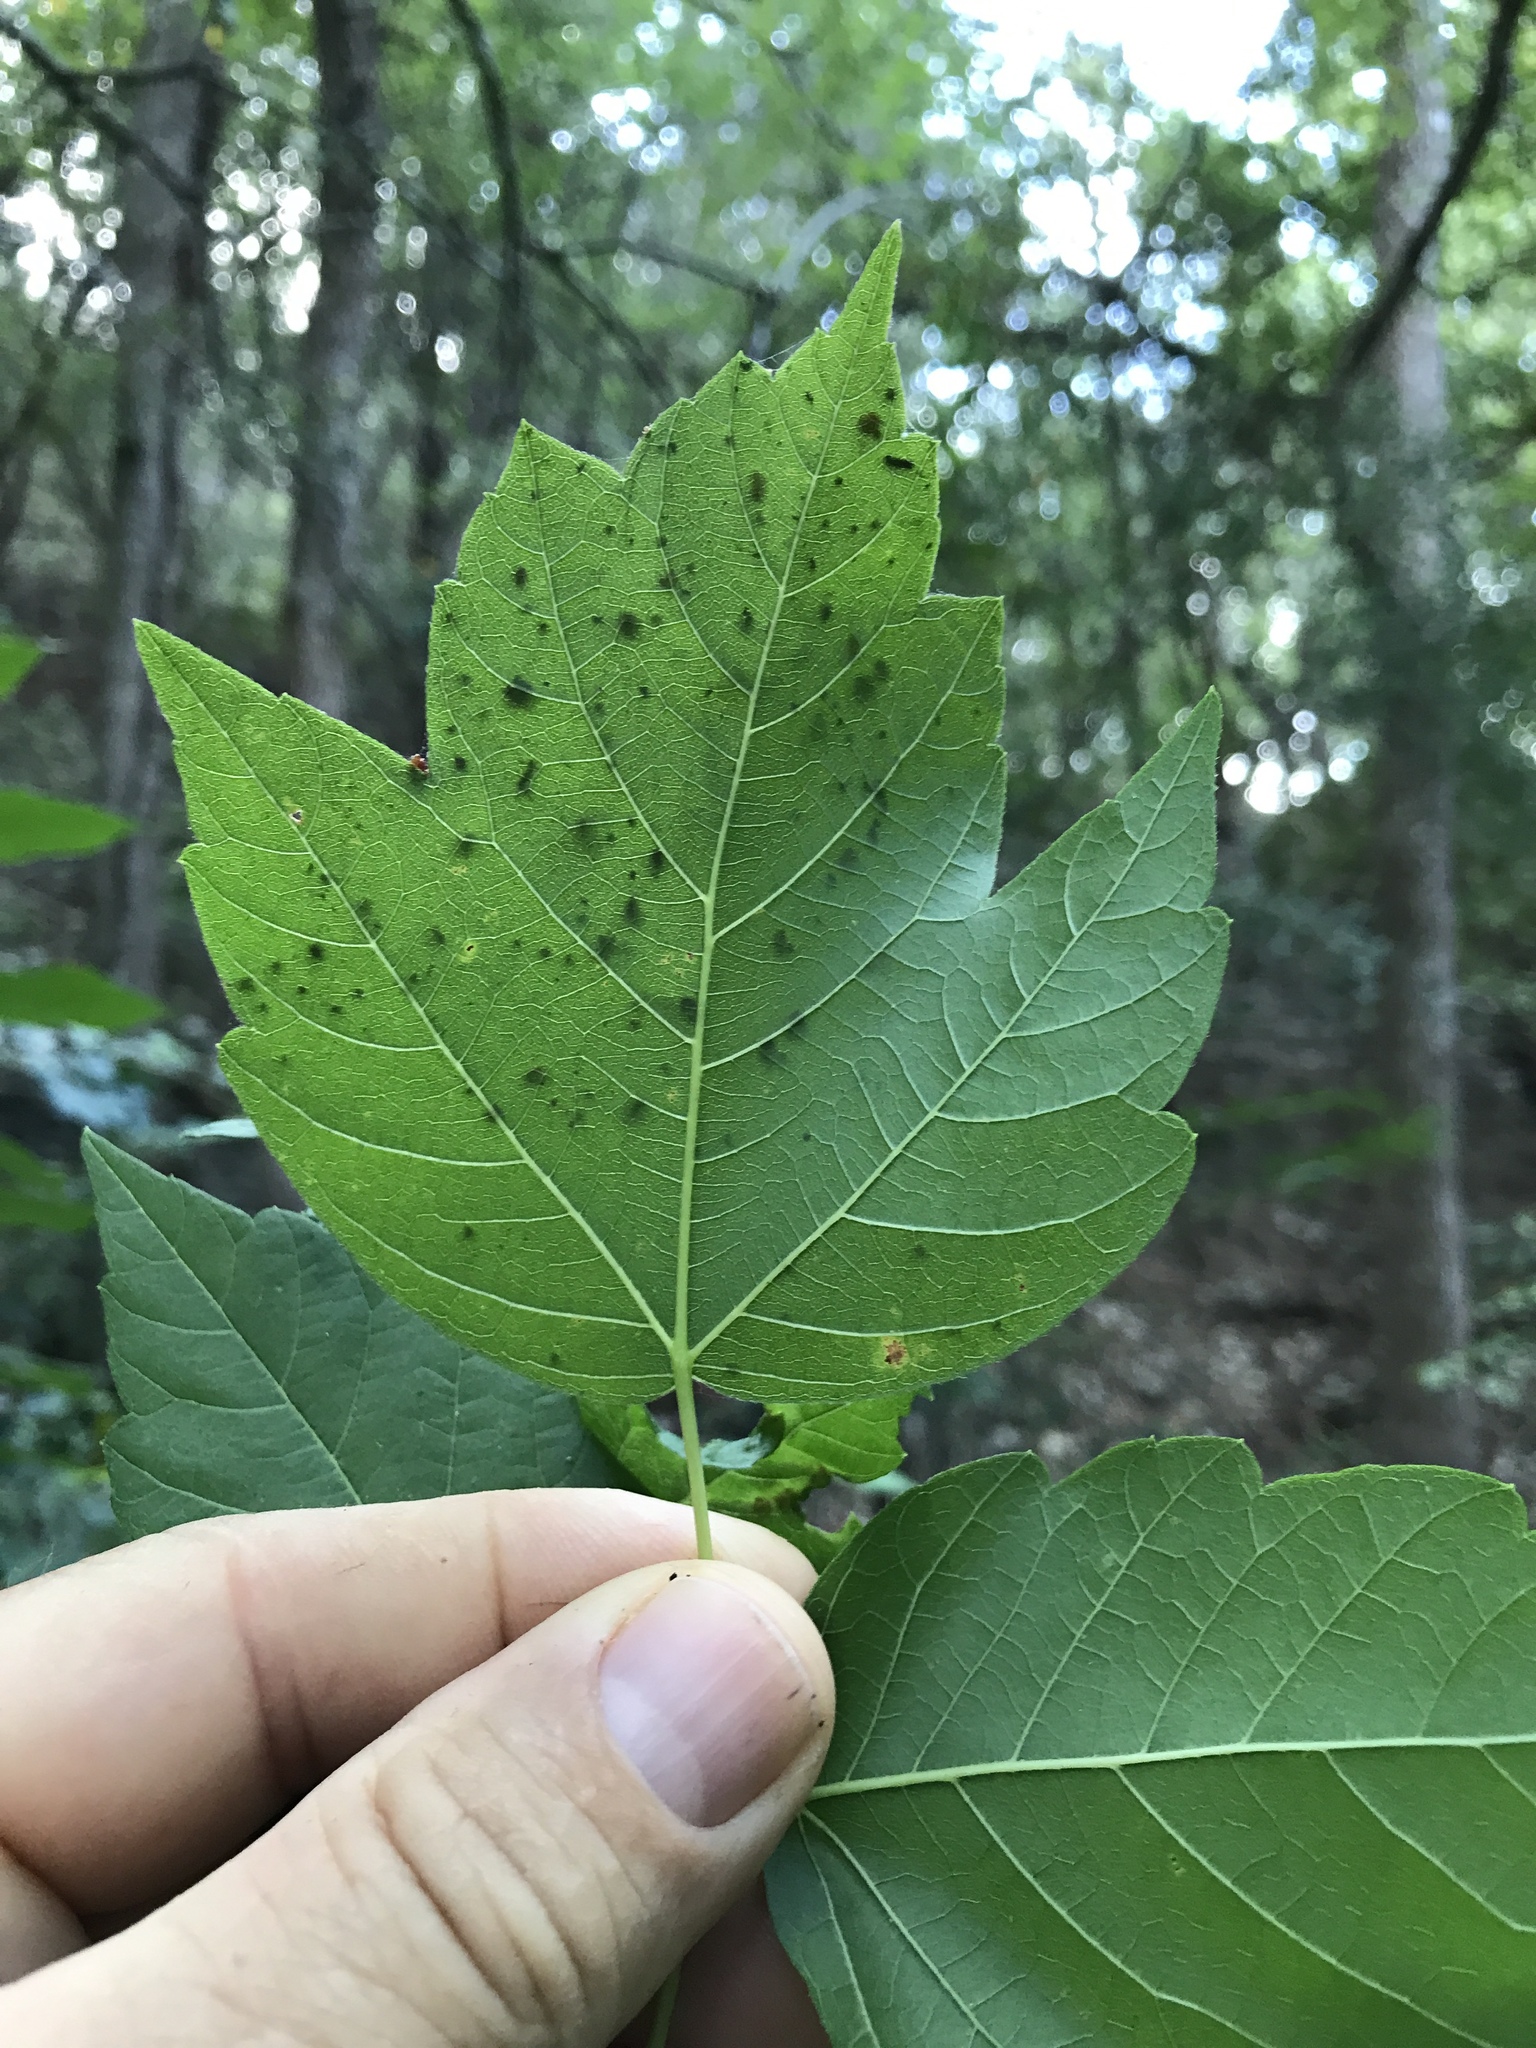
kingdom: Plantae
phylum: Tracheophyta
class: Magnoliopsida
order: Sapindales
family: Sapindaceae
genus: Acer
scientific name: Acer negundo
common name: Ashleaf maple
